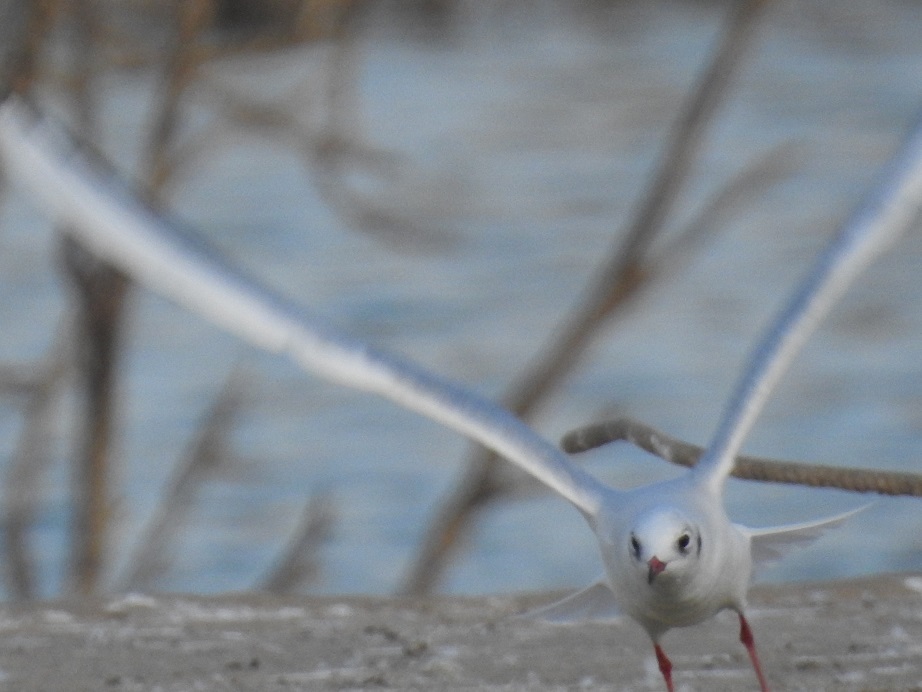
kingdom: Animalia
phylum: Chordata
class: Aves
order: Charadriiformes
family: Laridae
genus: Chroicocephalus
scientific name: Chroicocephalus ridibundus
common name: Black-headed gull
